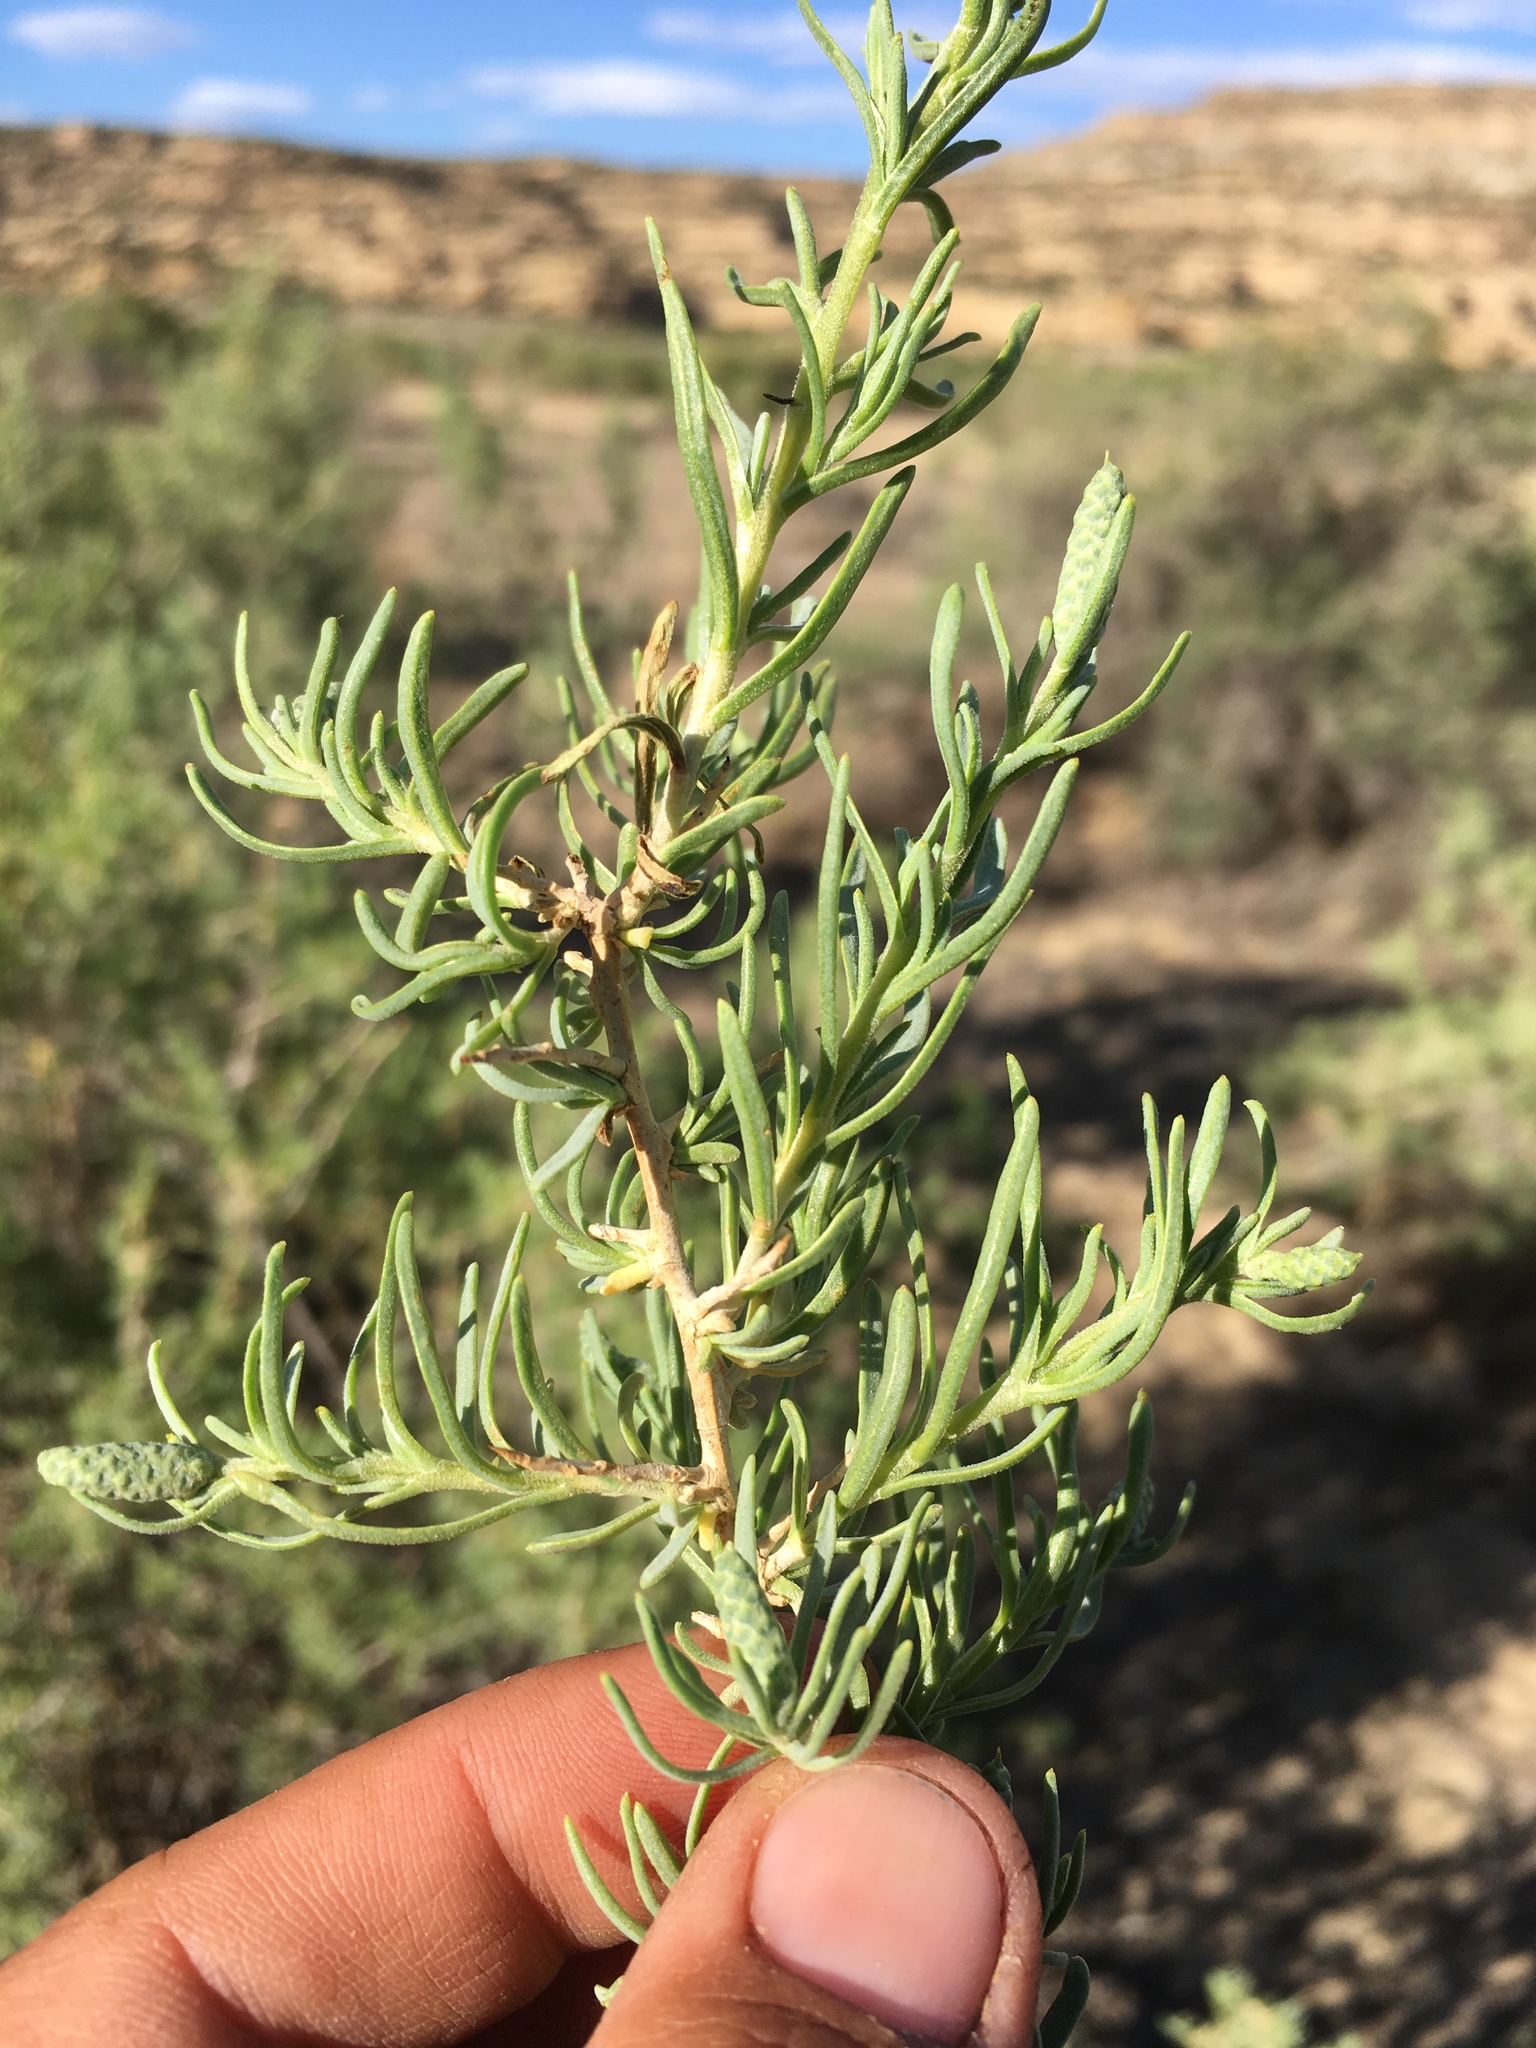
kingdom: Plantae
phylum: Tracheophyta
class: Magnoliopsida
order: Caryophyllales
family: Sarcobataceae
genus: Sarcobatus
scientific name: Sarcobatus vermiculatus
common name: Greasewood
